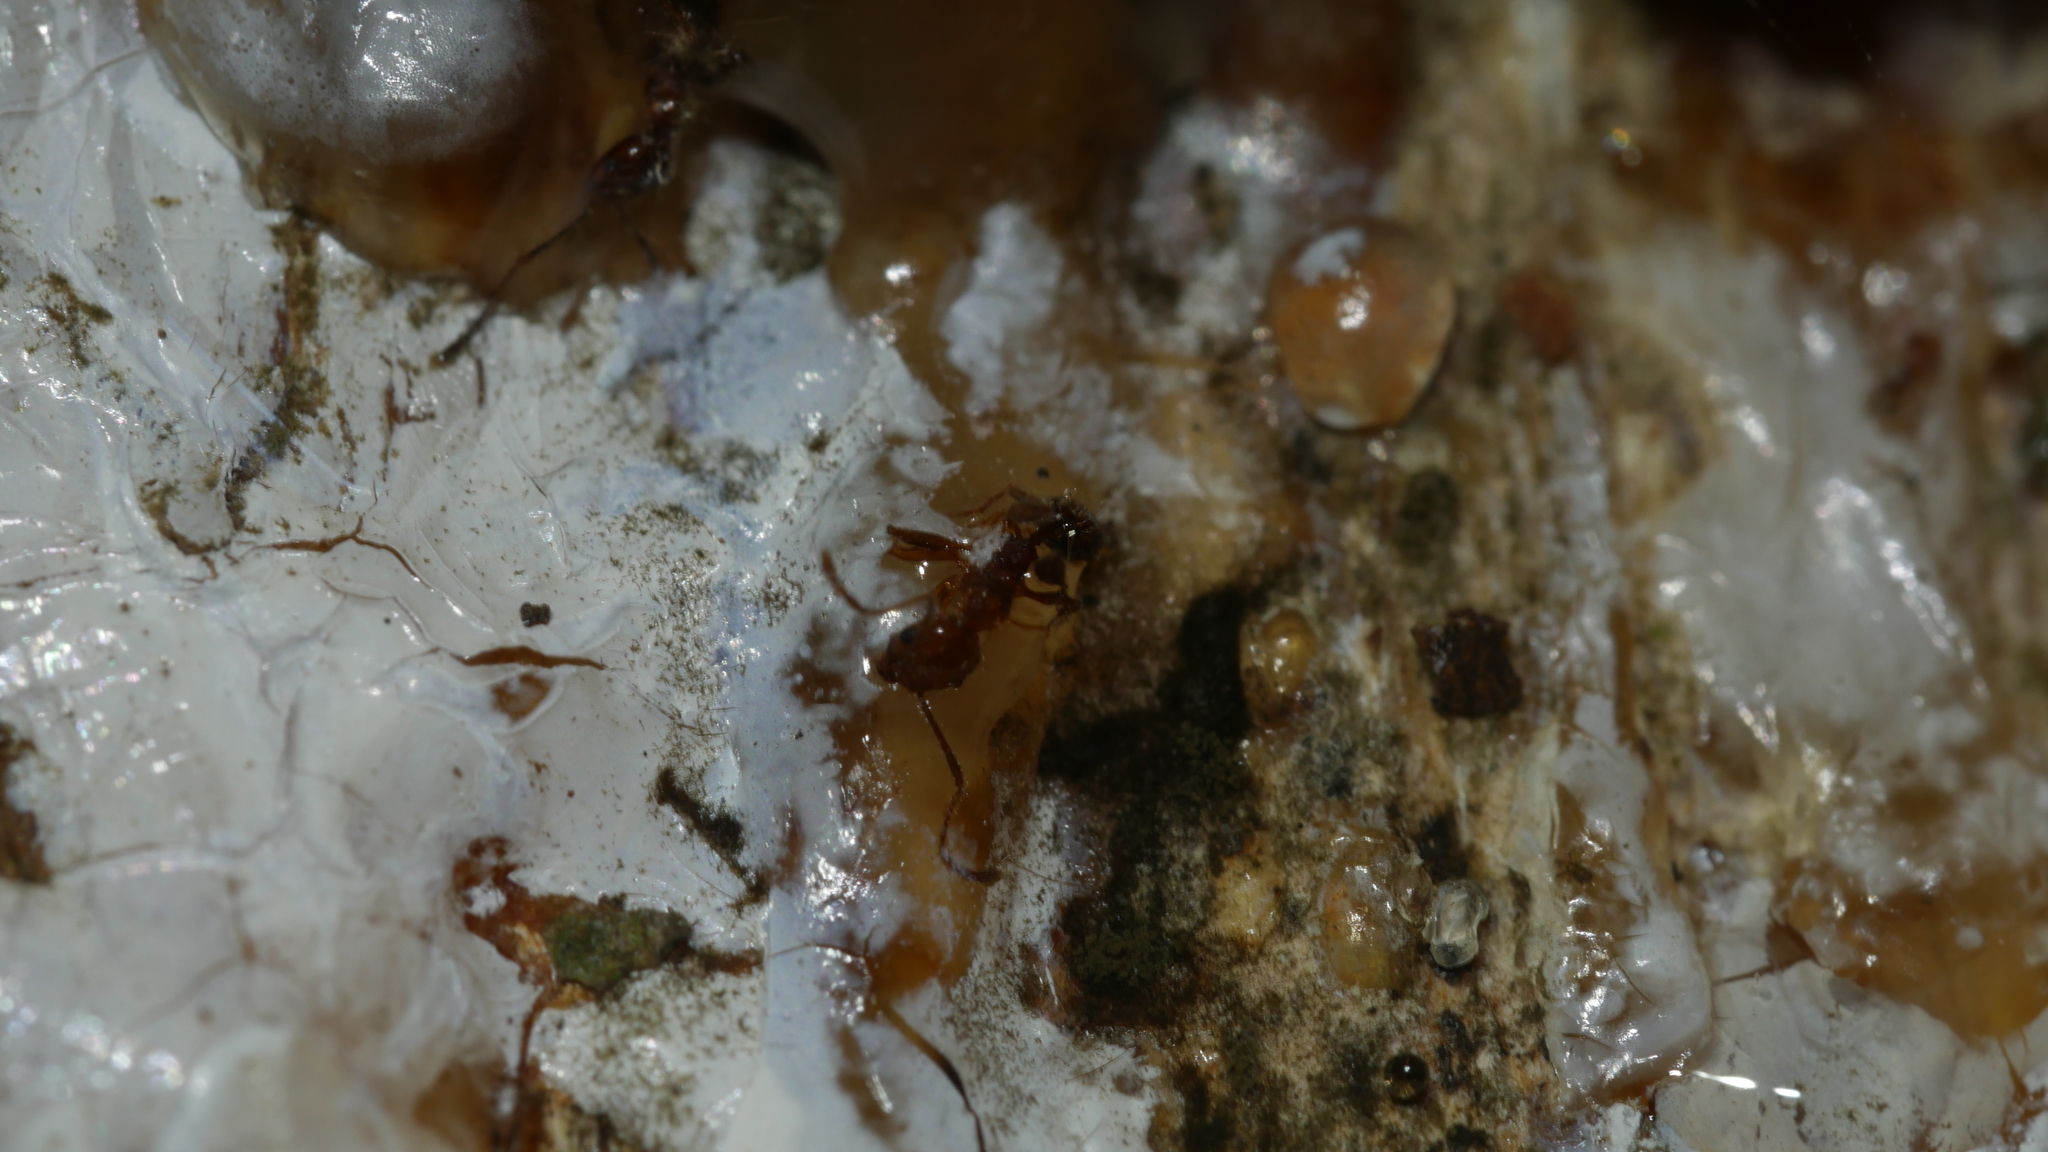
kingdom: Animalia
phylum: Arthropoda
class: Insecta
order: Hymenoptera
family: Formicidae
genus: Pheidole
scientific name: Pheidole dentata
